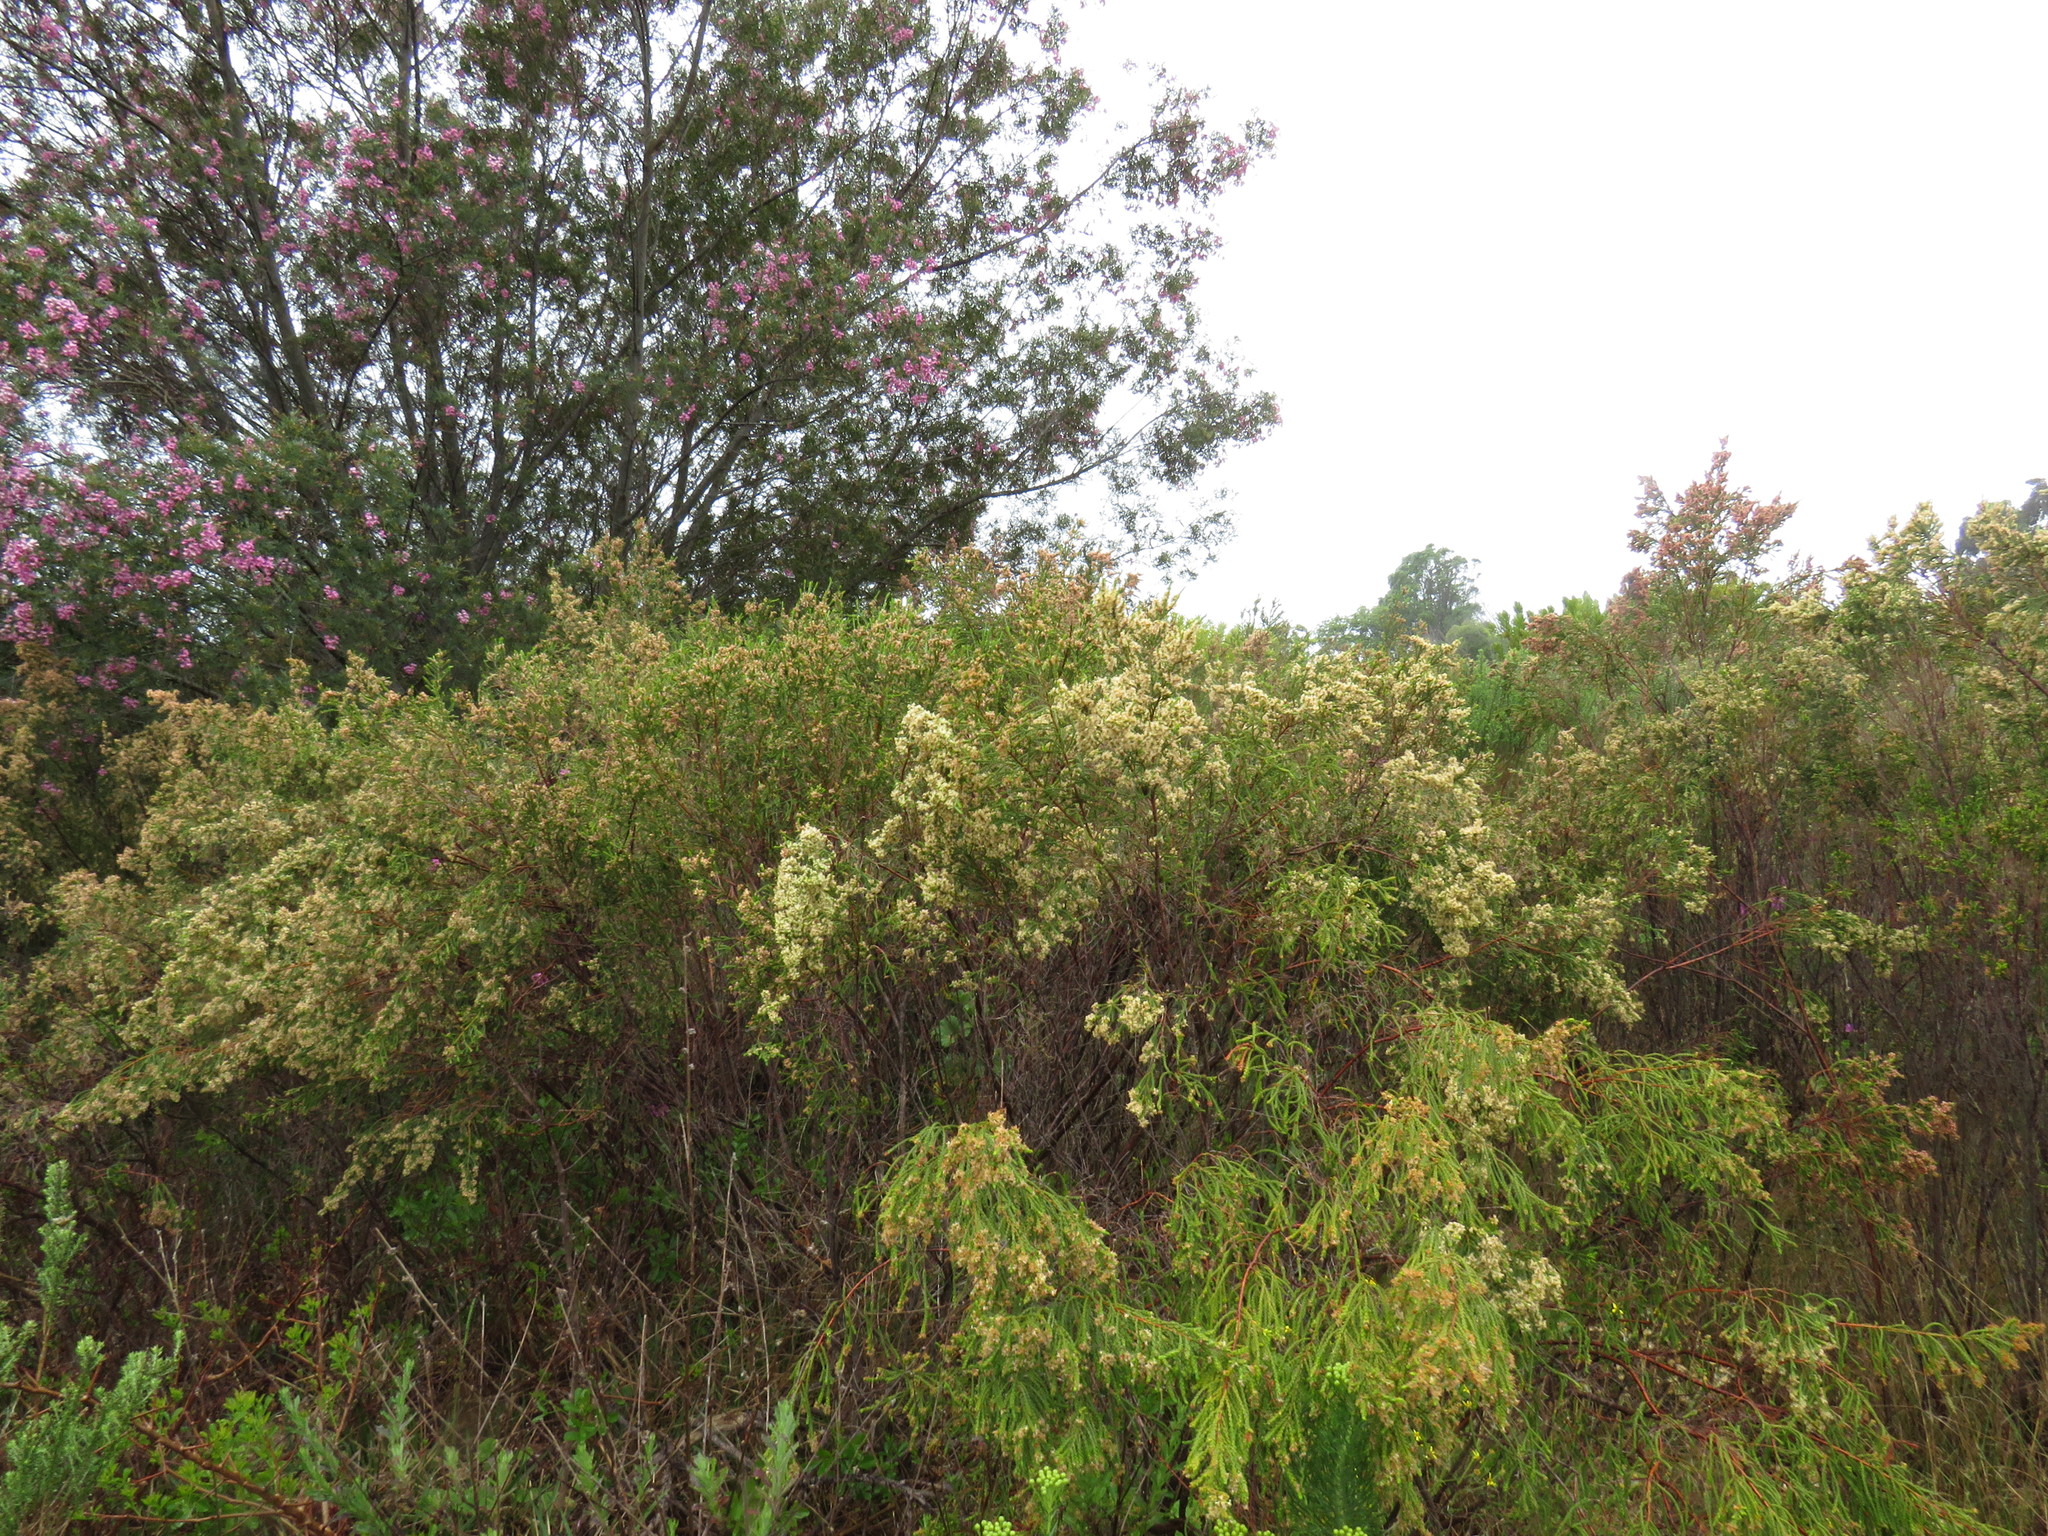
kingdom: Plantae
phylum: Tracheophyta
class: Magnoliopsida
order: Malvales
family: Thymelaeaceae
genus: Passerina
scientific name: Passerina corymbosa
